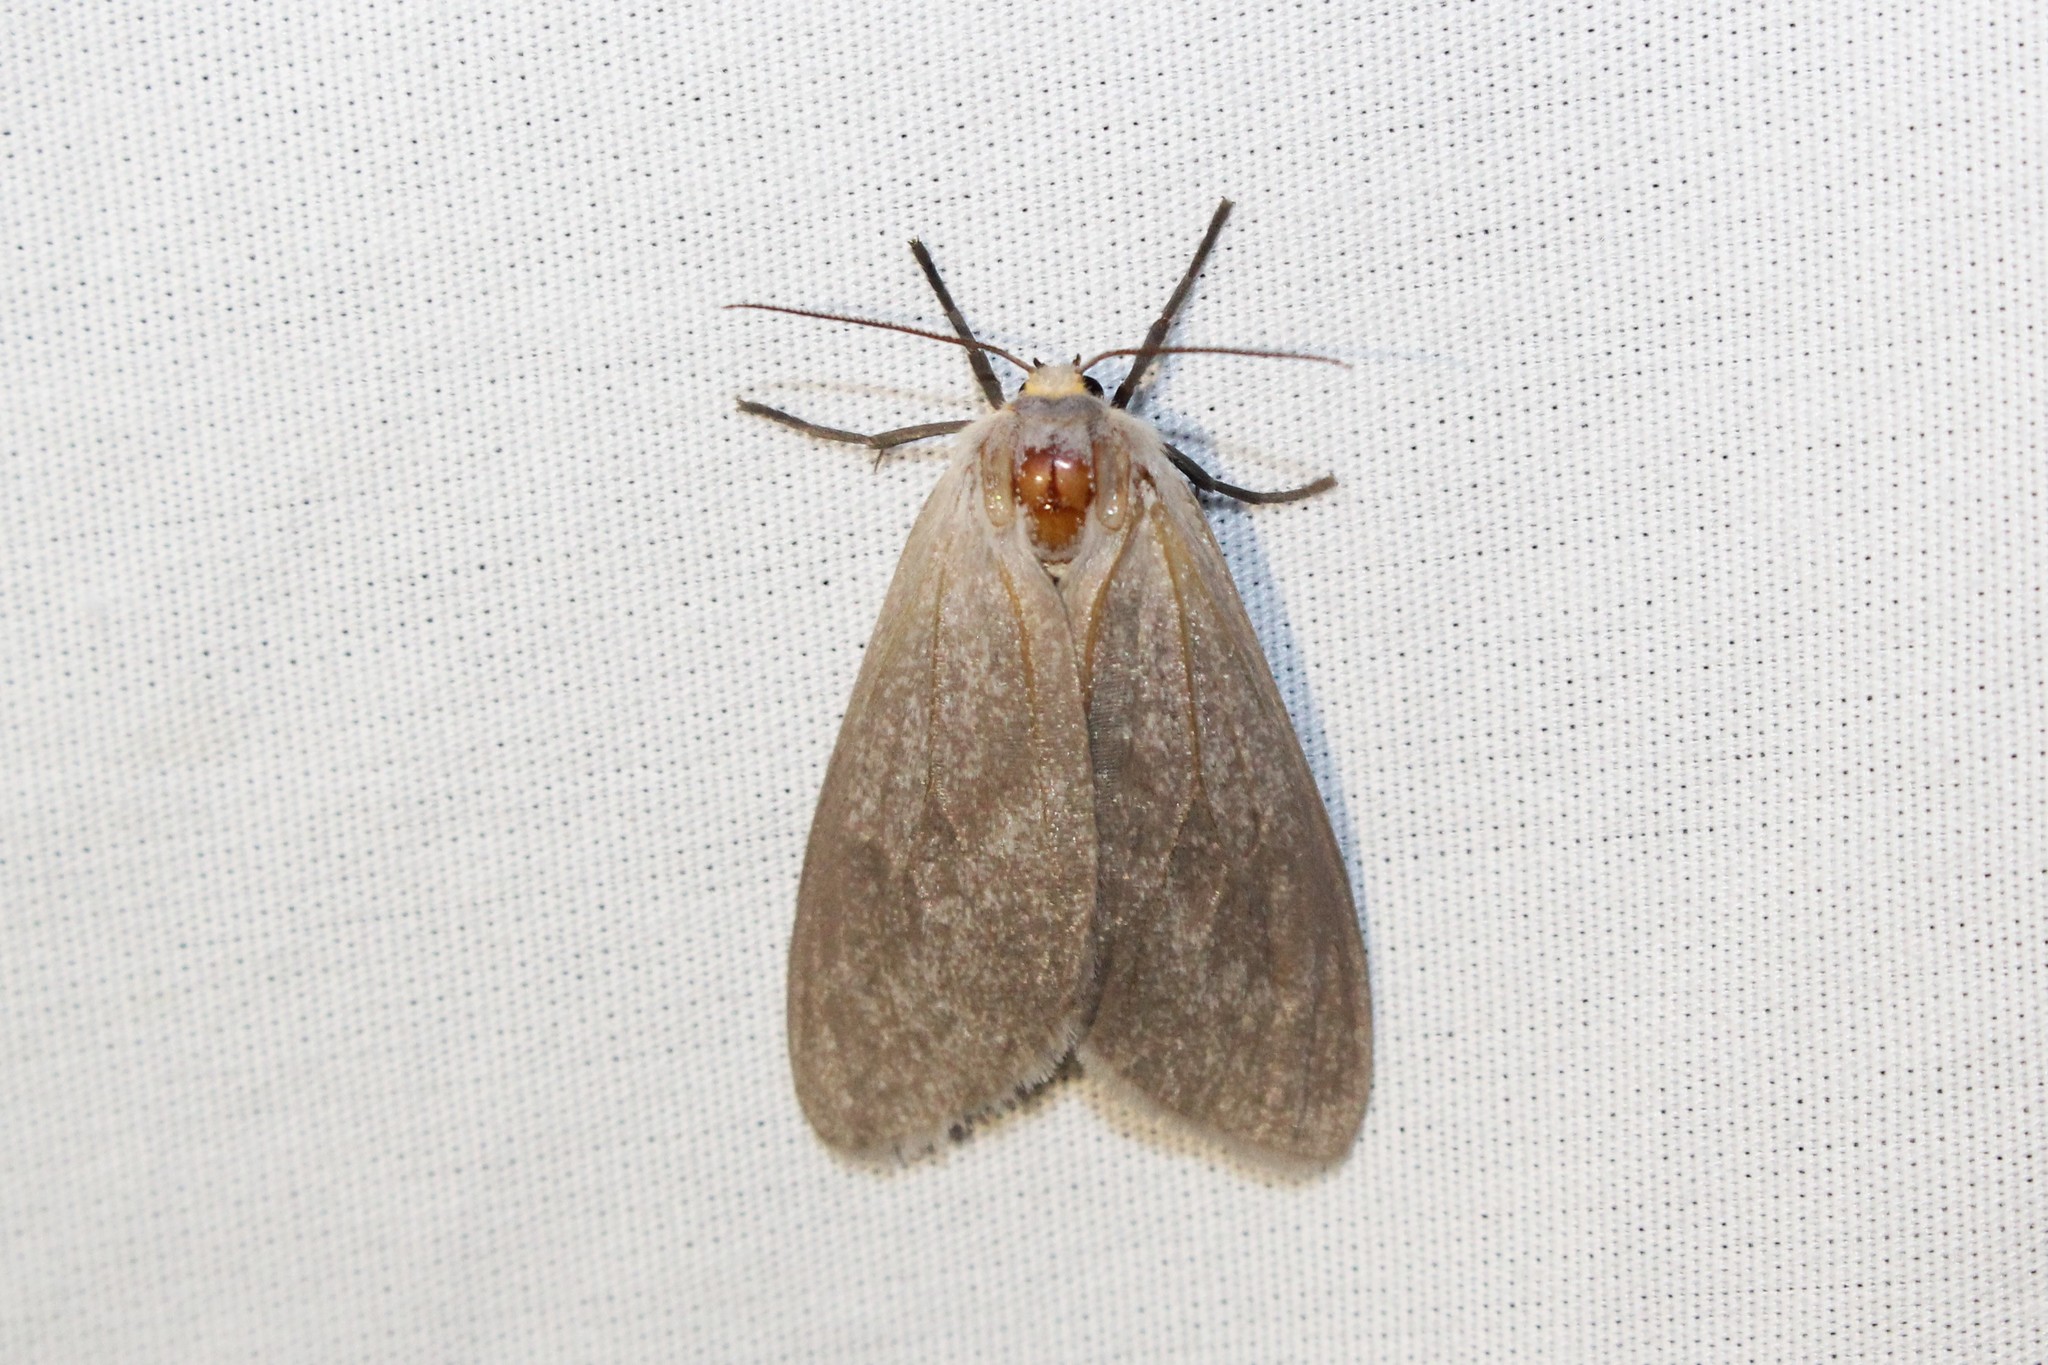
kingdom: Animalia
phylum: Arthropoda
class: Insecta
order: Lepidoptera
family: Erebidae
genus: Euchaetes
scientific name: Euchaetes egle
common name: Milkweed tussock moth
